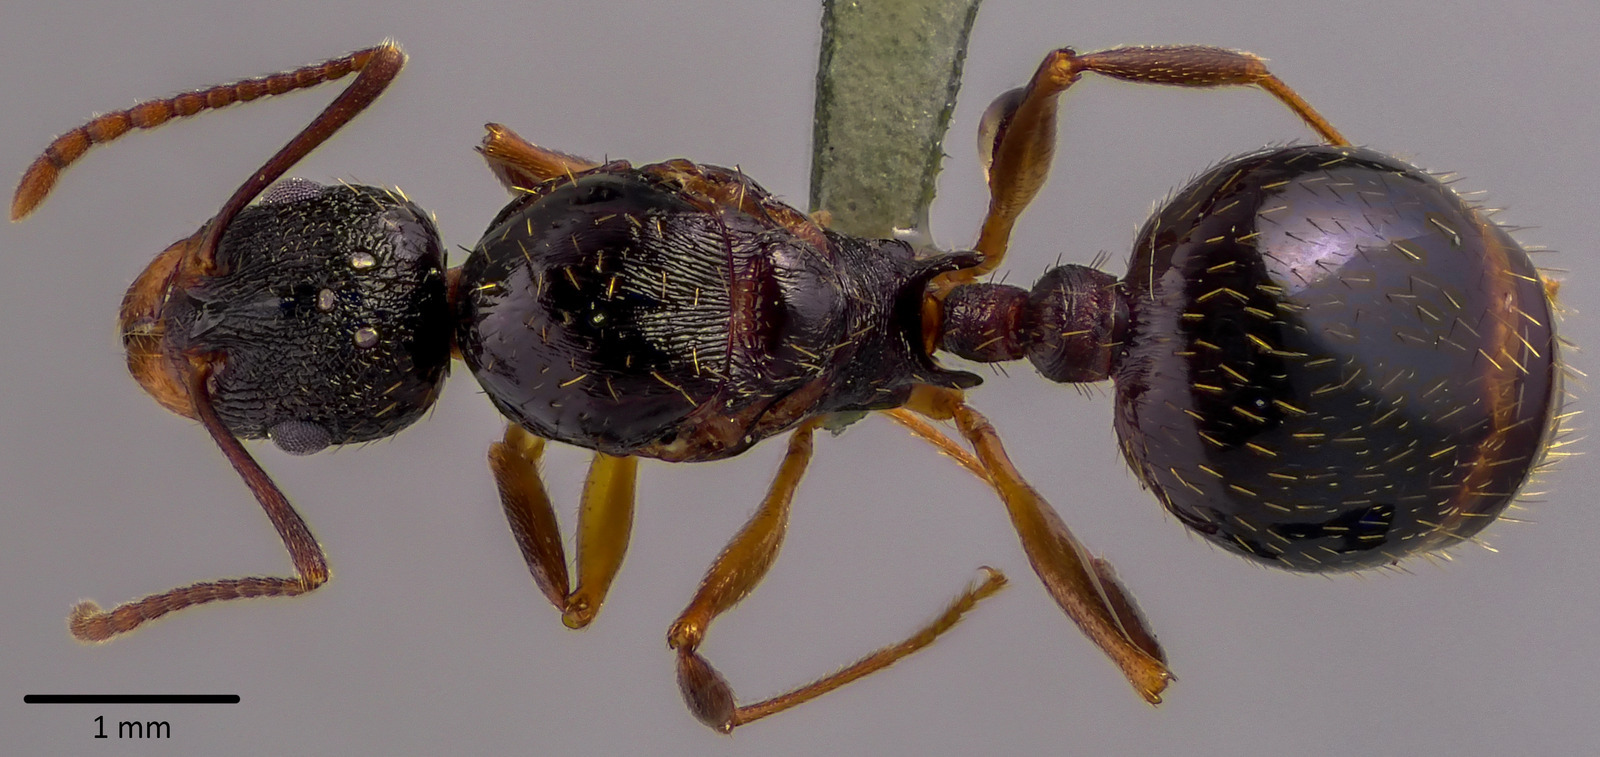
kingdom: Animalia
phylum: Arthropoda
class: Insecta
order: Hymenoptera
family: Formicidae
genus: Aphaenogaster
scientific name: Aphaenogaster picea
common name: Pitch-black collared ant
